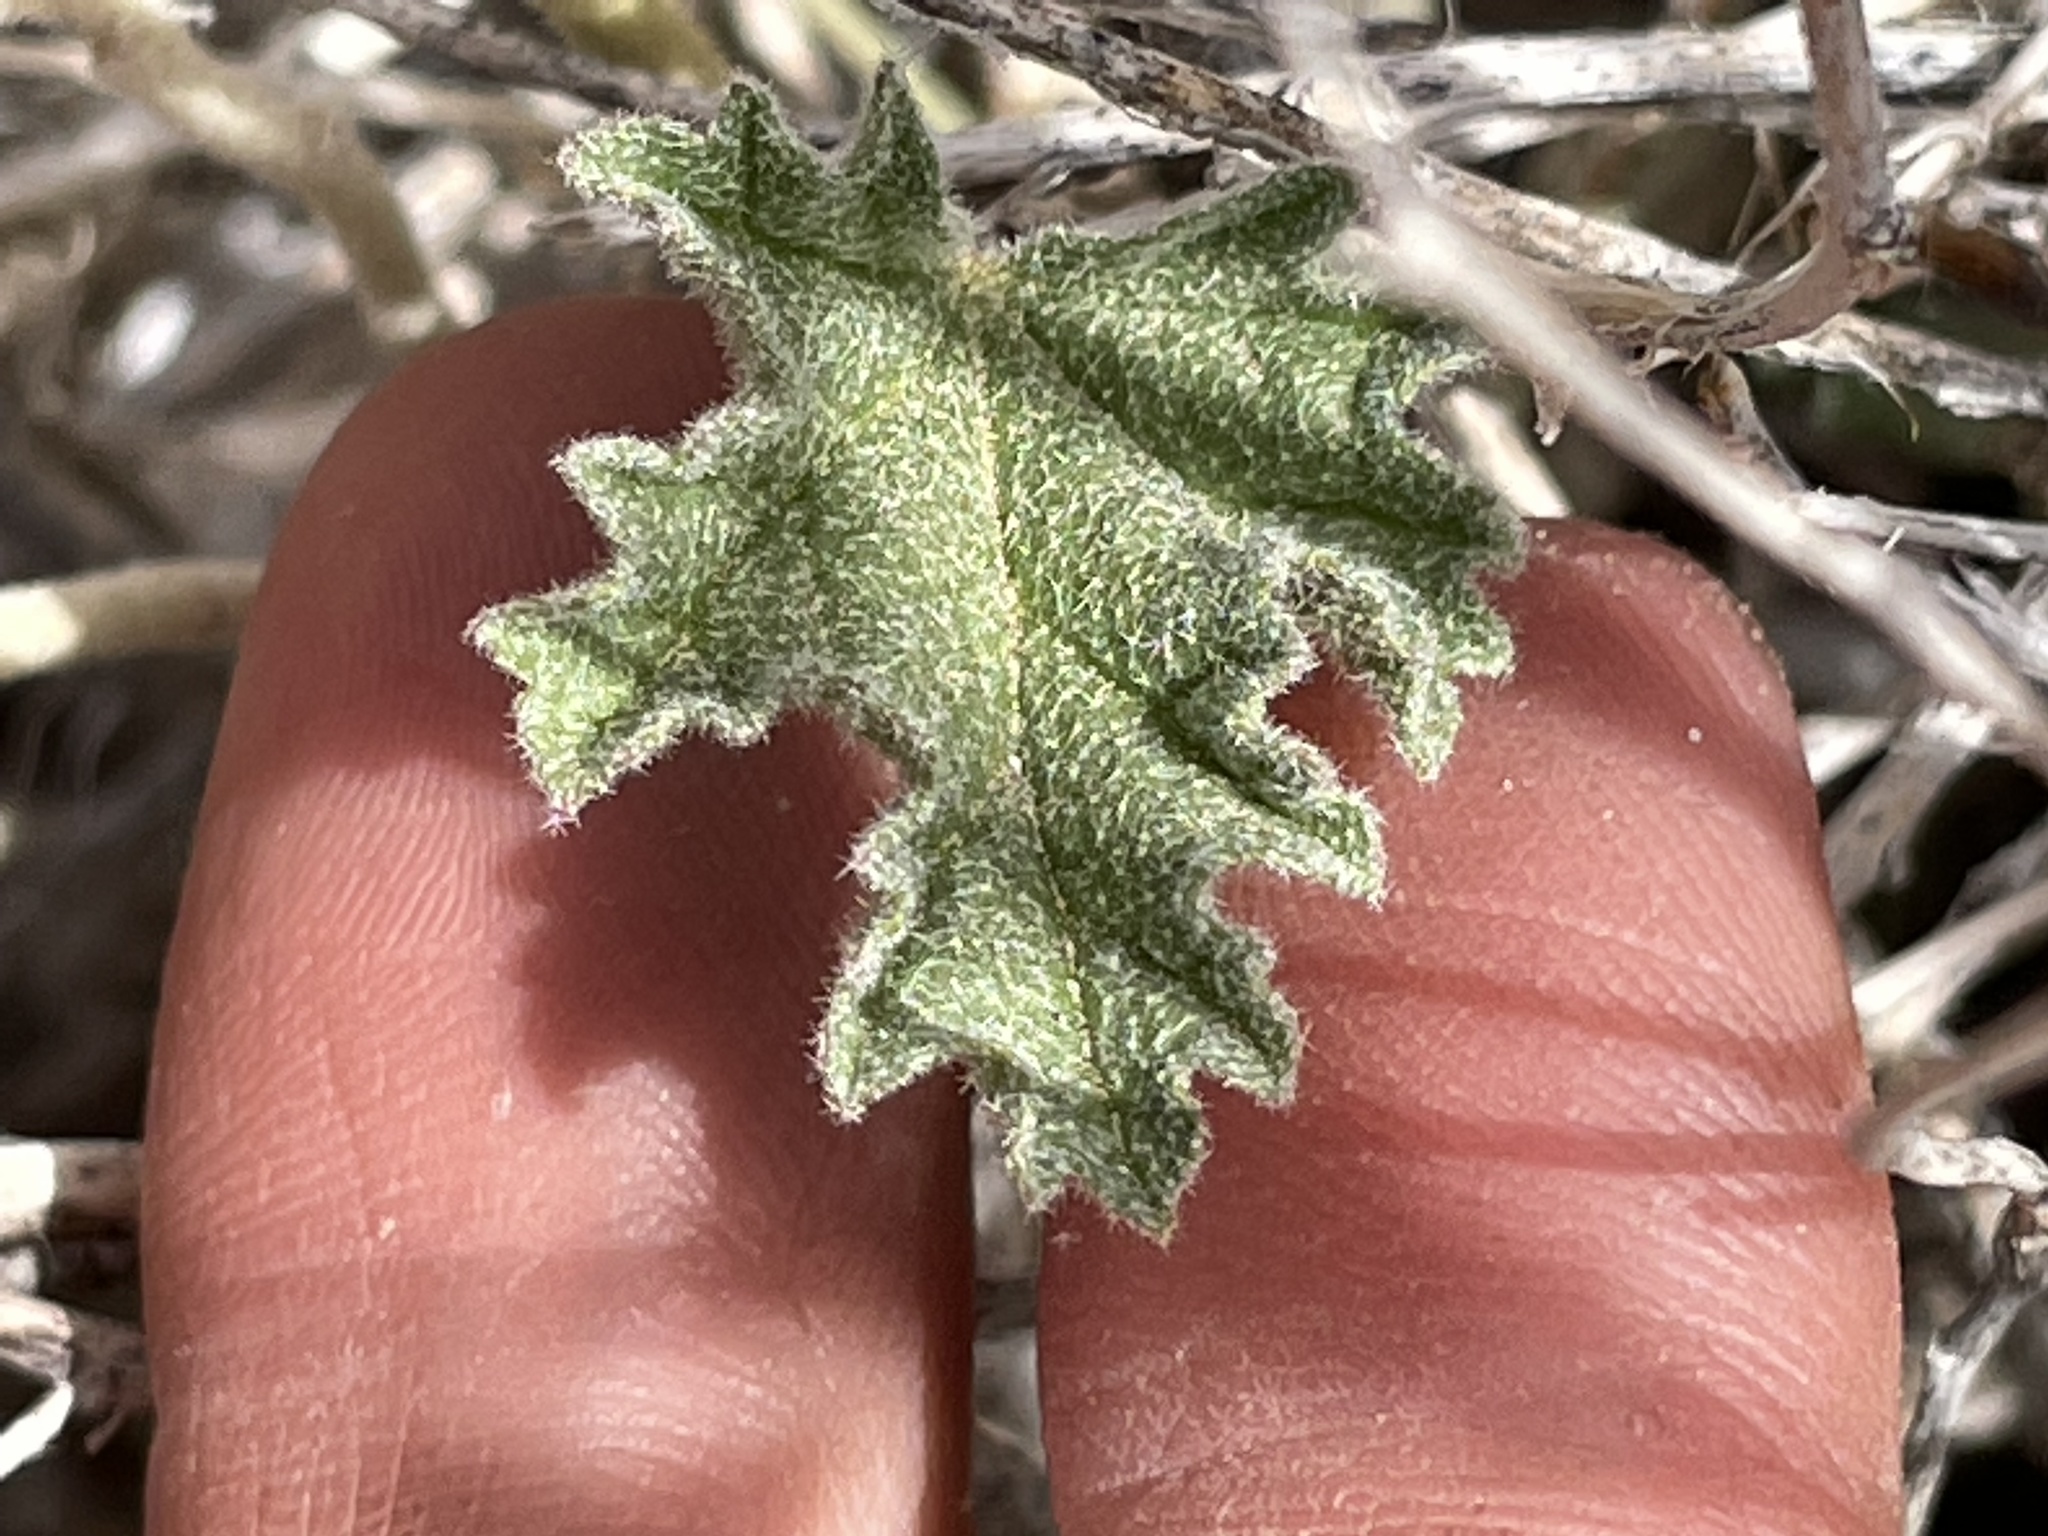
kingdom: Plantae
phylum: Tracheophyta
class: Magnoliopsida
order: Malvales
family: Malvaceae
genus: Sphaeralcea
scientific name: Sphaeralcea ambigua
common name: Apricot globe-mallow
